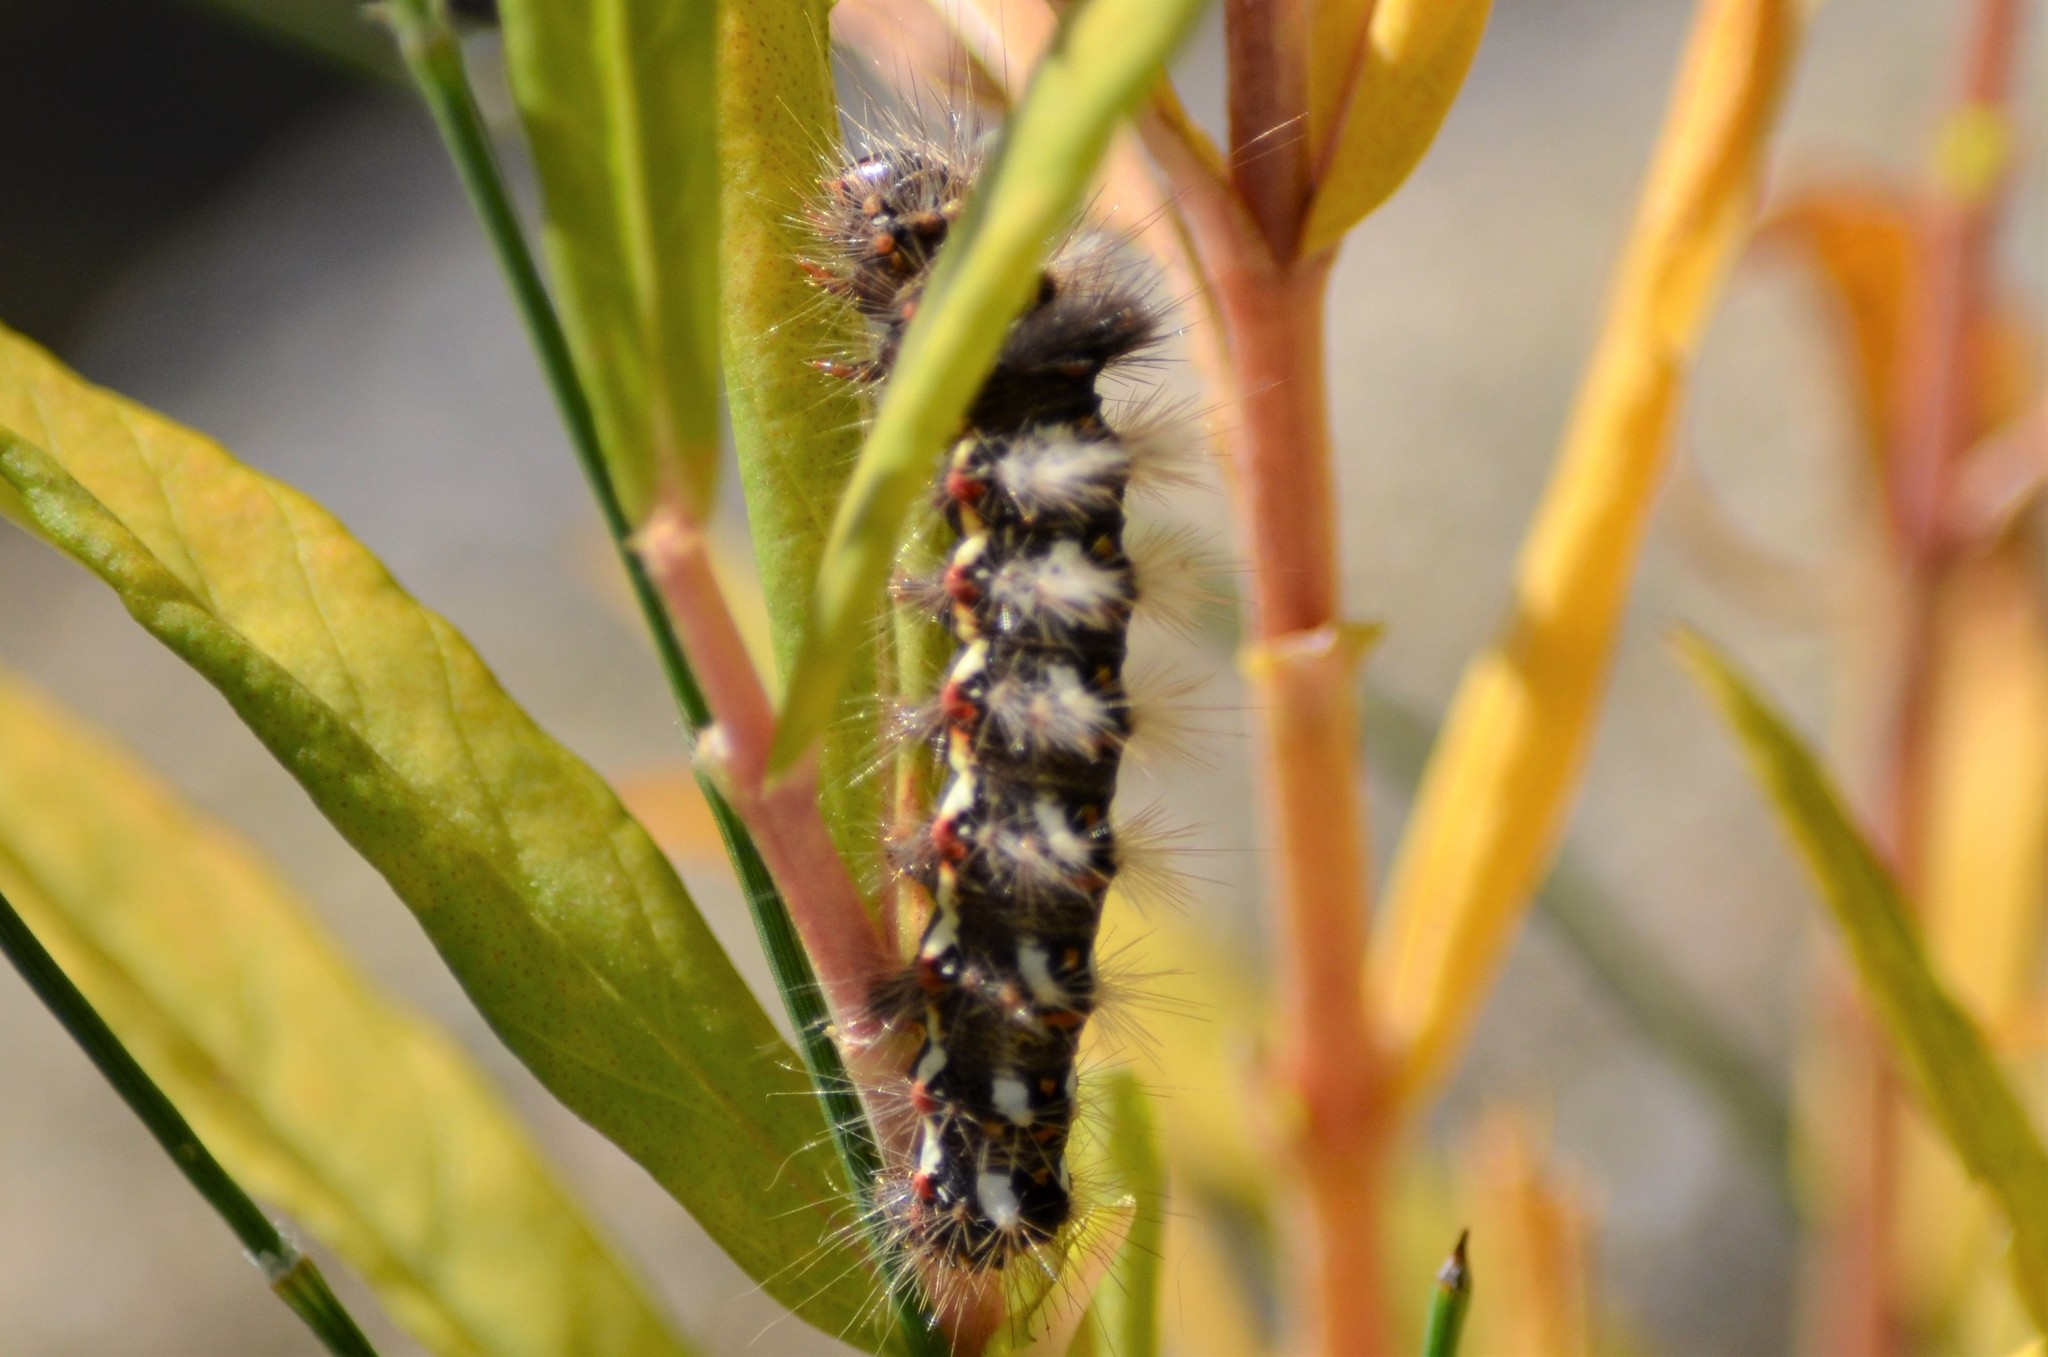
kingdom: Animalia
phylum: Arthropoda
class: Insecta
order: Lepidoptera
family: Noctuidae
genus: Acronicta
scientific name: Acronicta rumicis
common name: Knot grass
